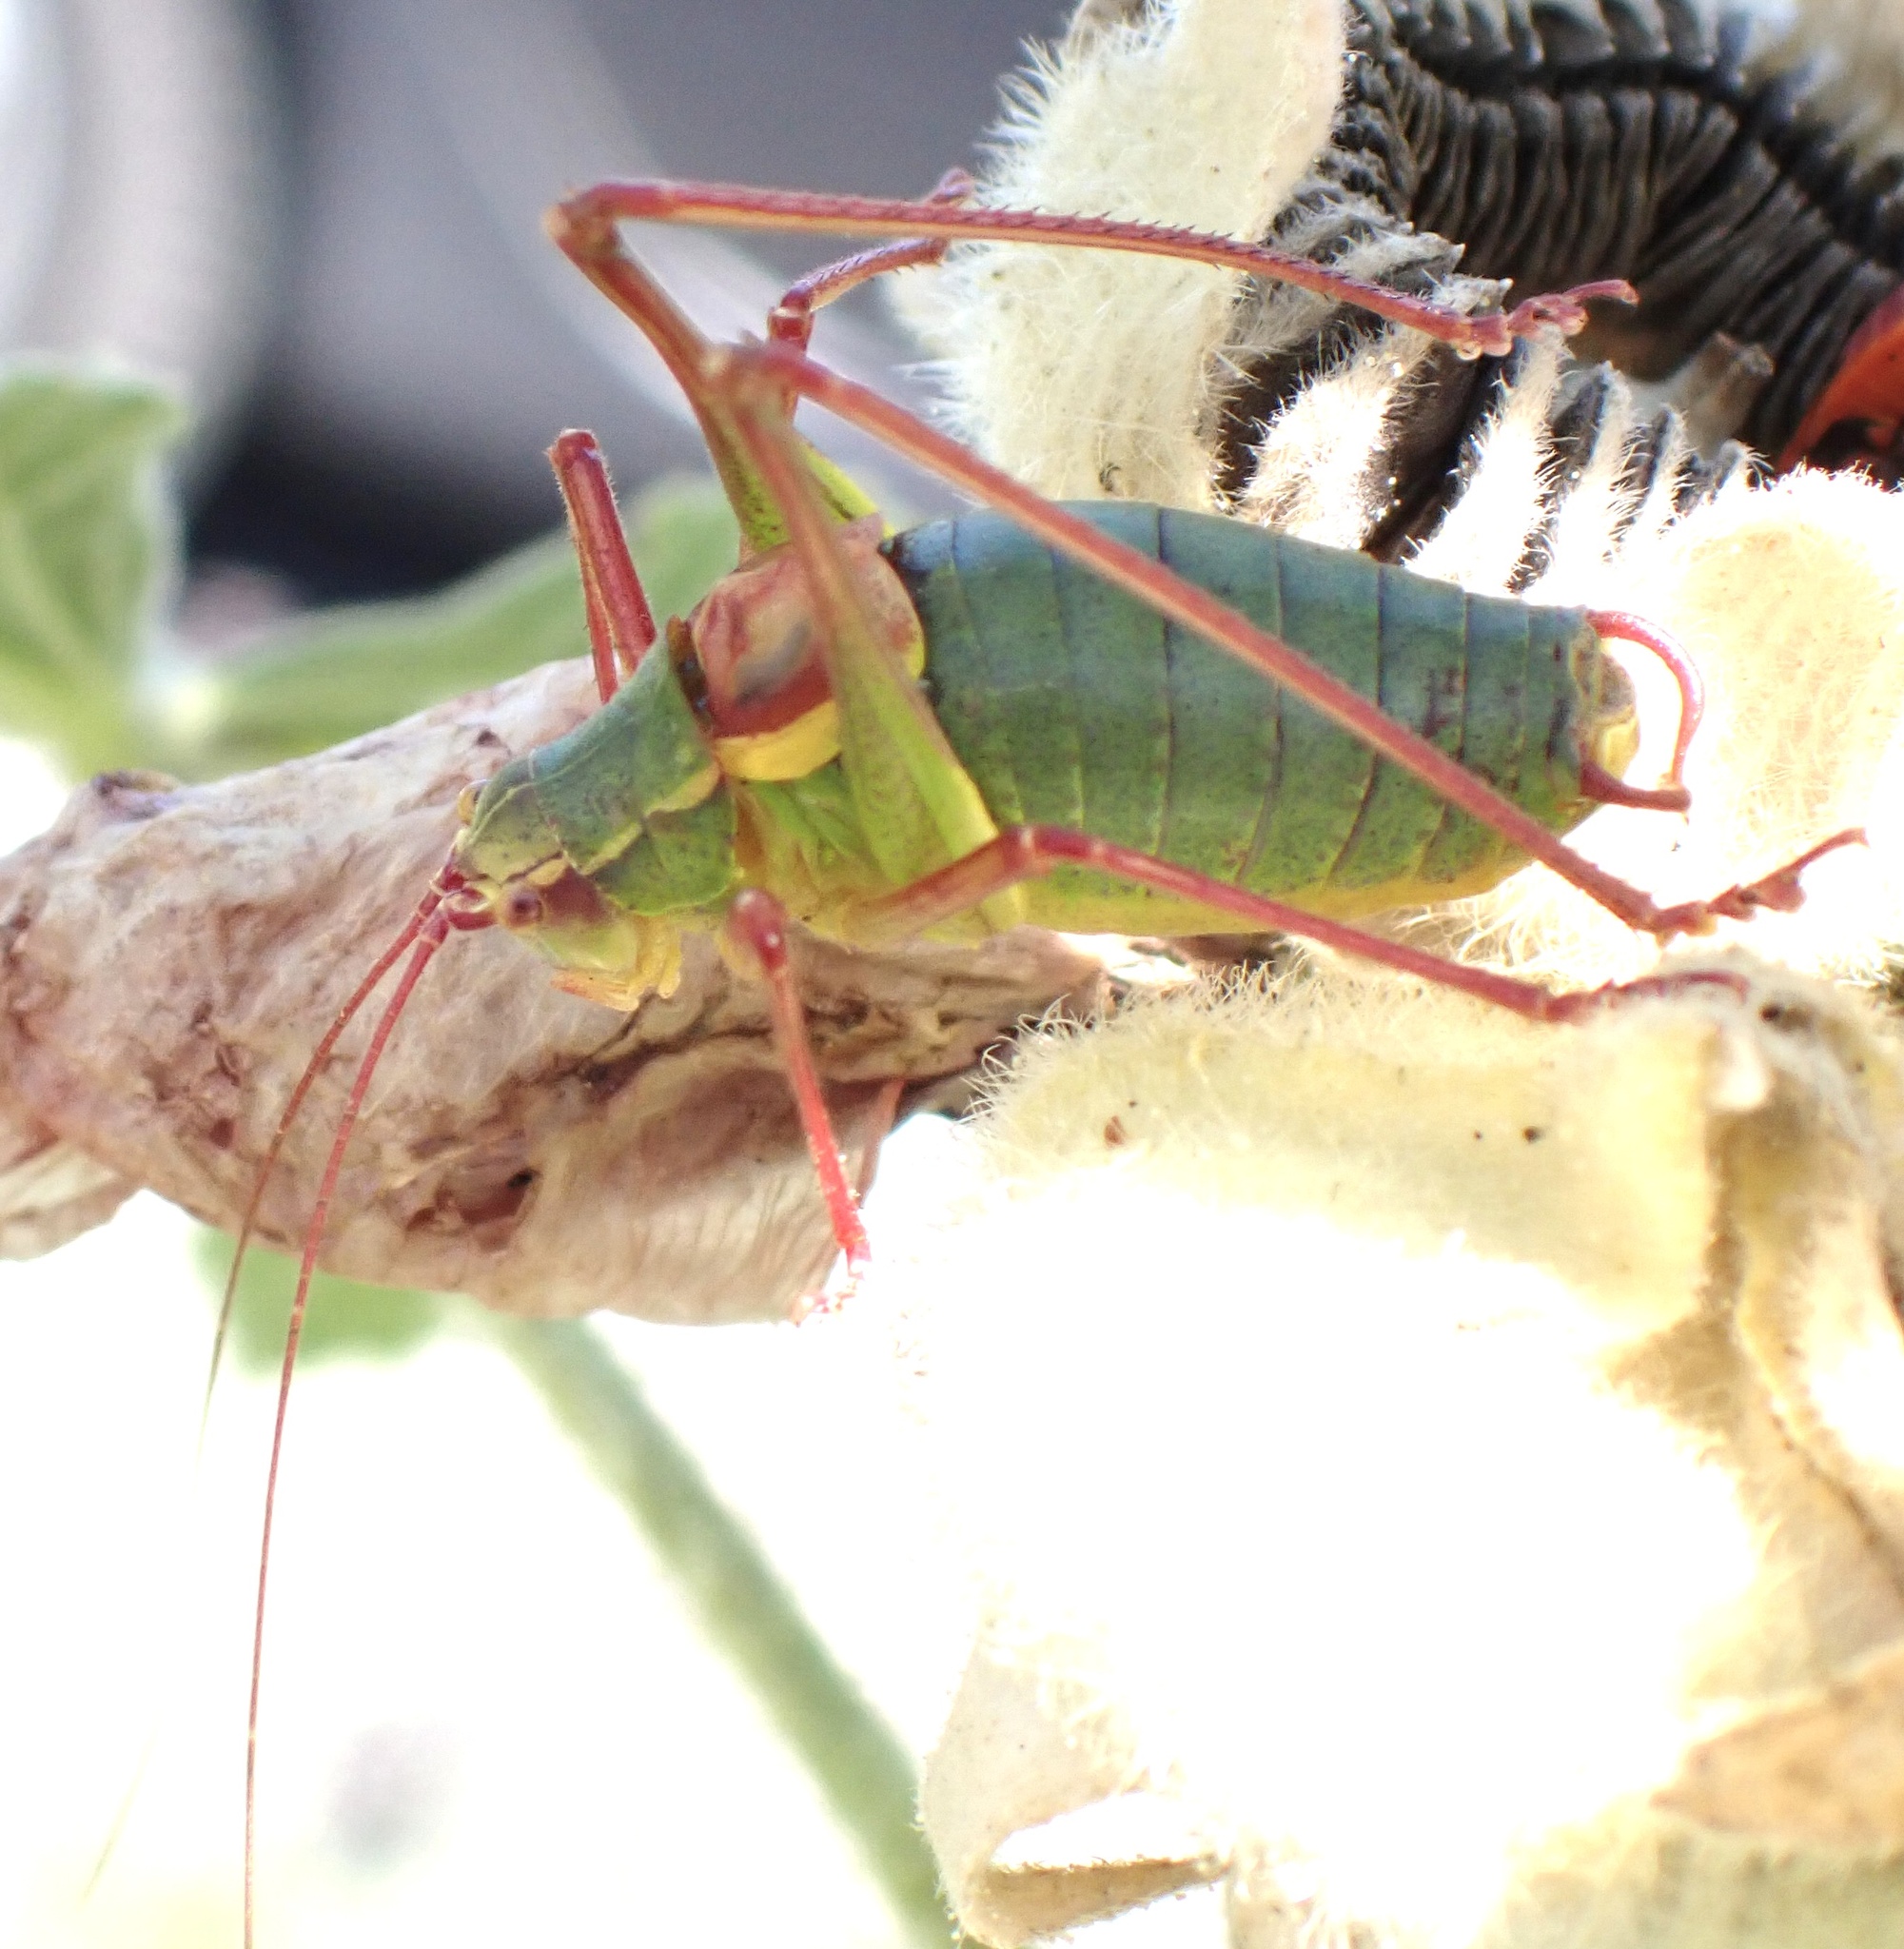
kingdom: Animalia
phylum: Arthropoda
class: Insecta
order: Orthoptera
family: Tettigoniidae
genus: Barbitistes
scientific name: Barbitistes serricauda
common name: Saw-tailed bush-cricket
